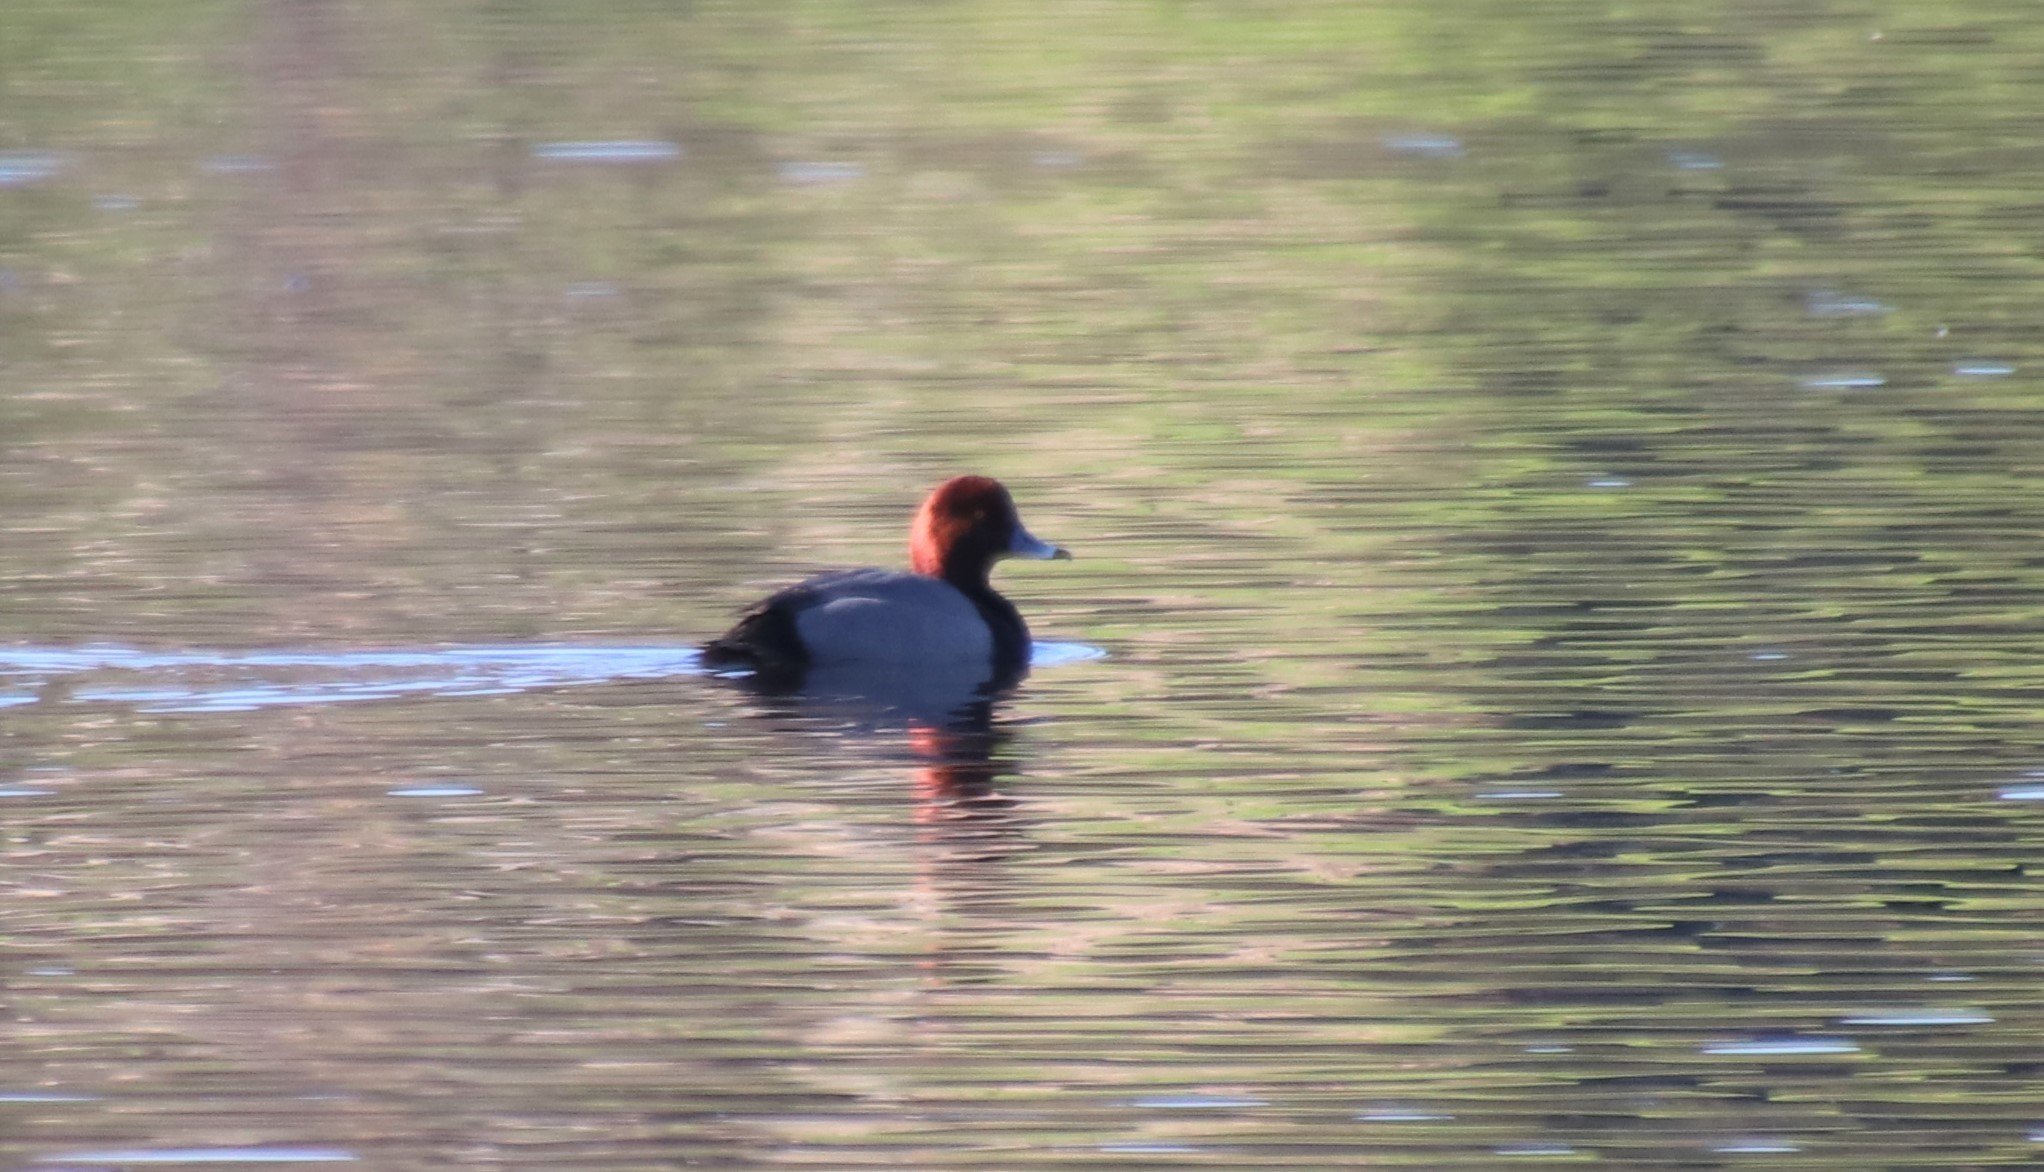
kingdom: Animalia
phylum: Chordata
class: Aves
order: Anseriformes
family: Anatidae
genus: Aythya
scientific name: Aythya americana
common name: Redhead
